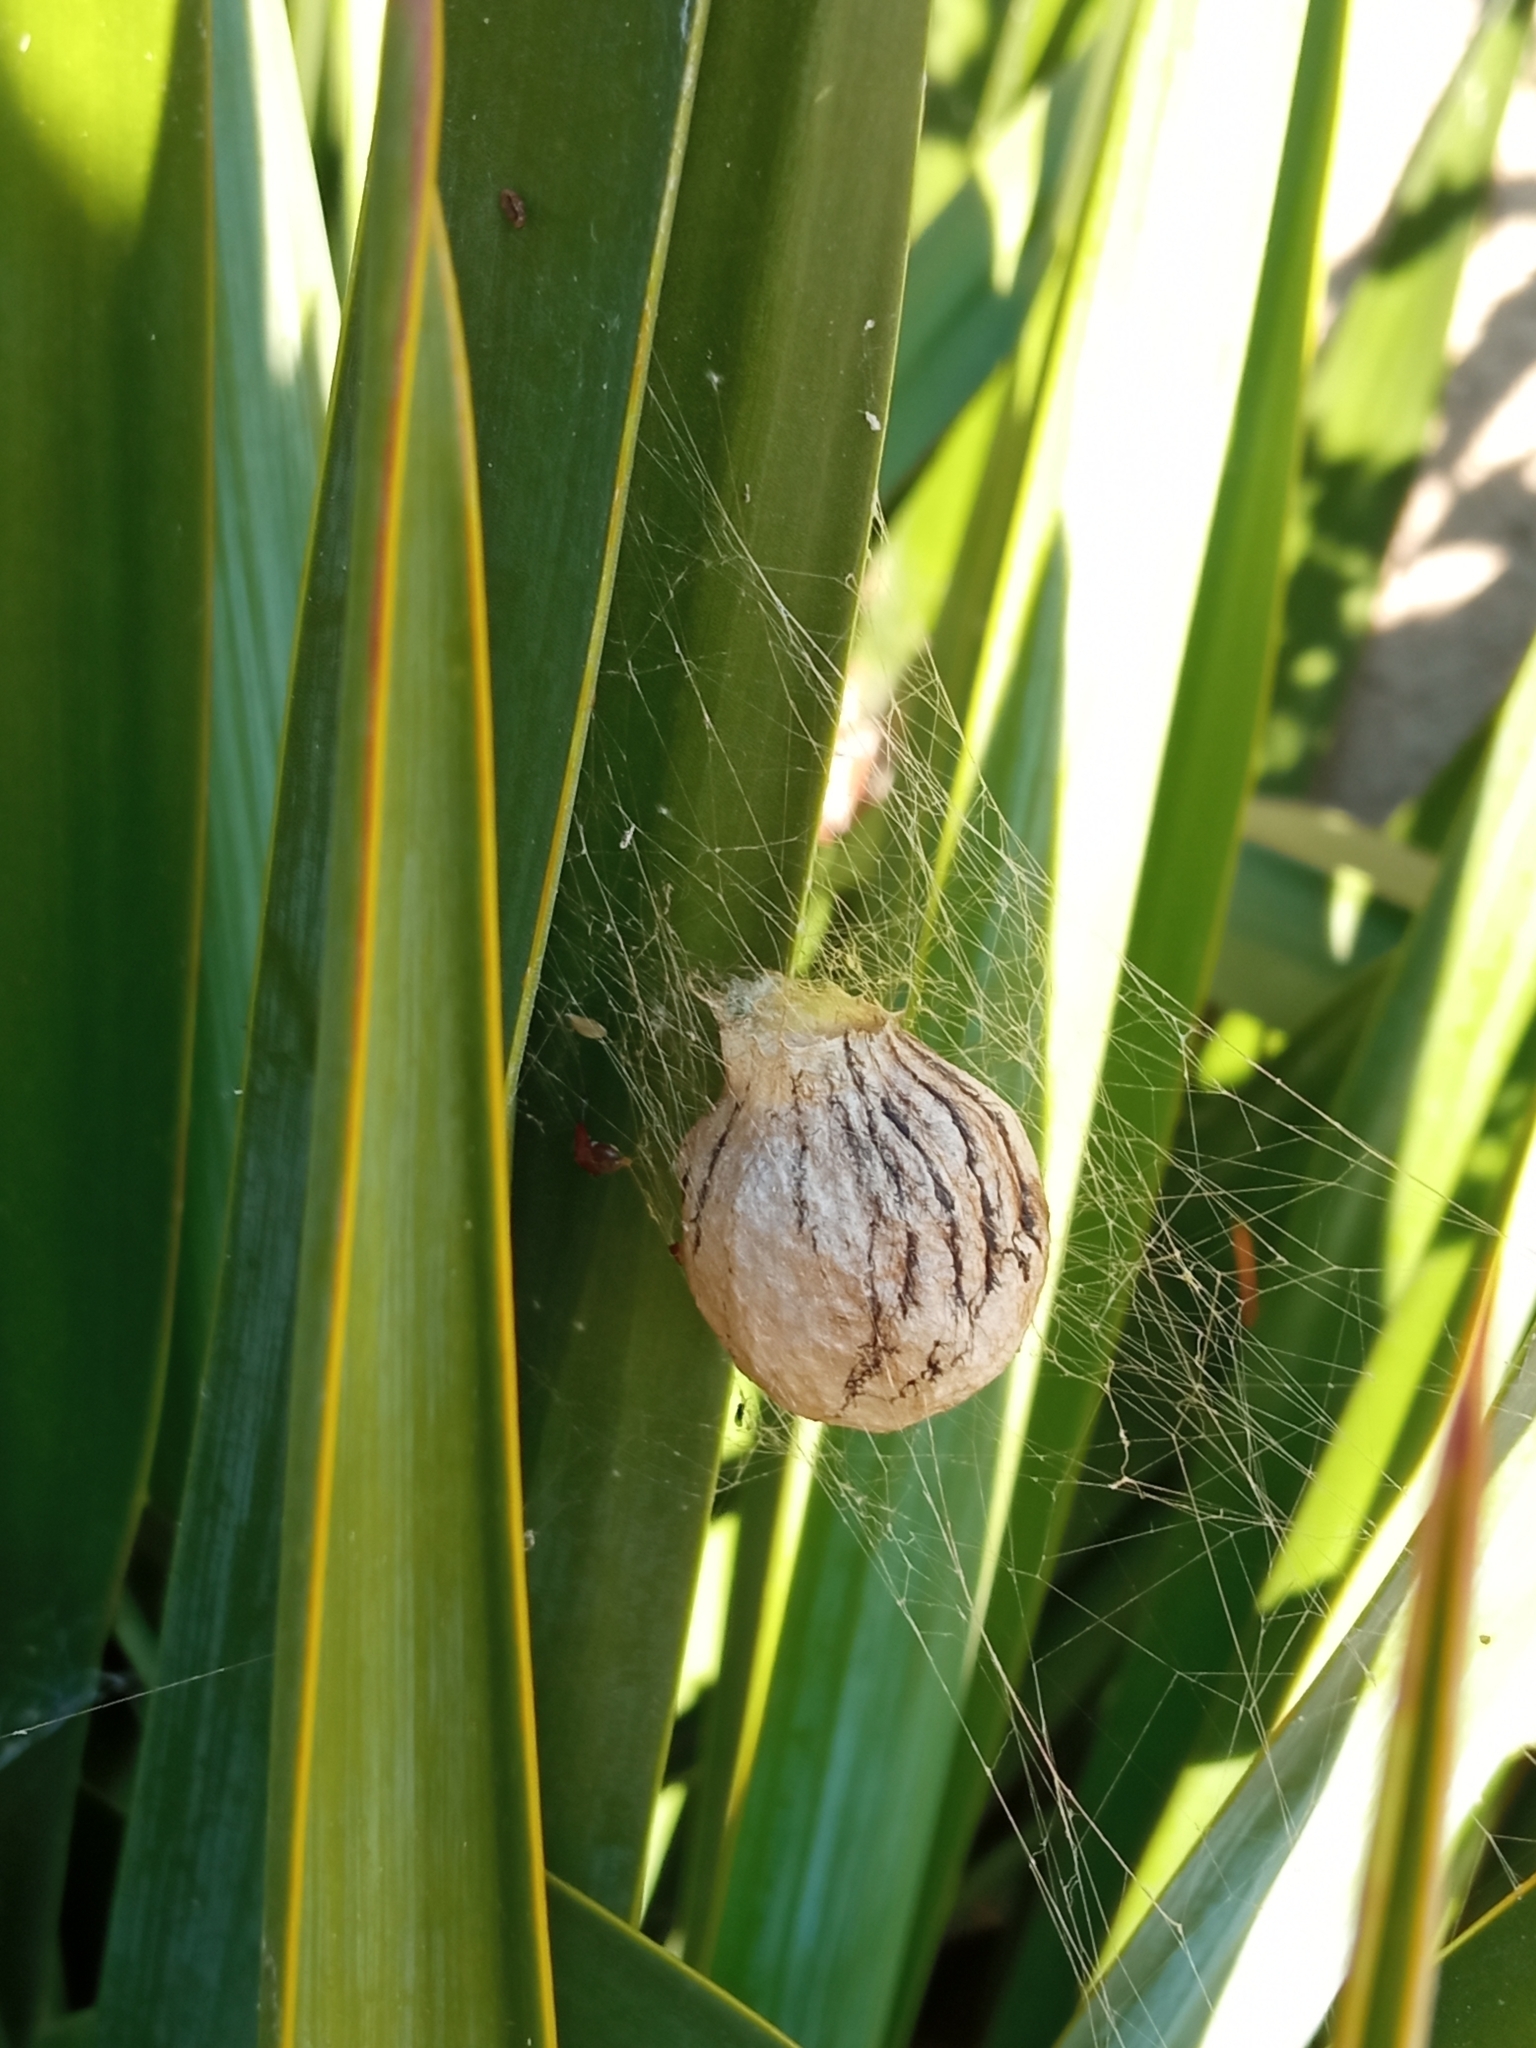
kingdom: Animalia
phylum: Arthropoda
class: Arachnida
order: Araneae
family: Araneidae
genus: Argiope
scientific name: Argiope bruennichi
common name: Wasp spider
